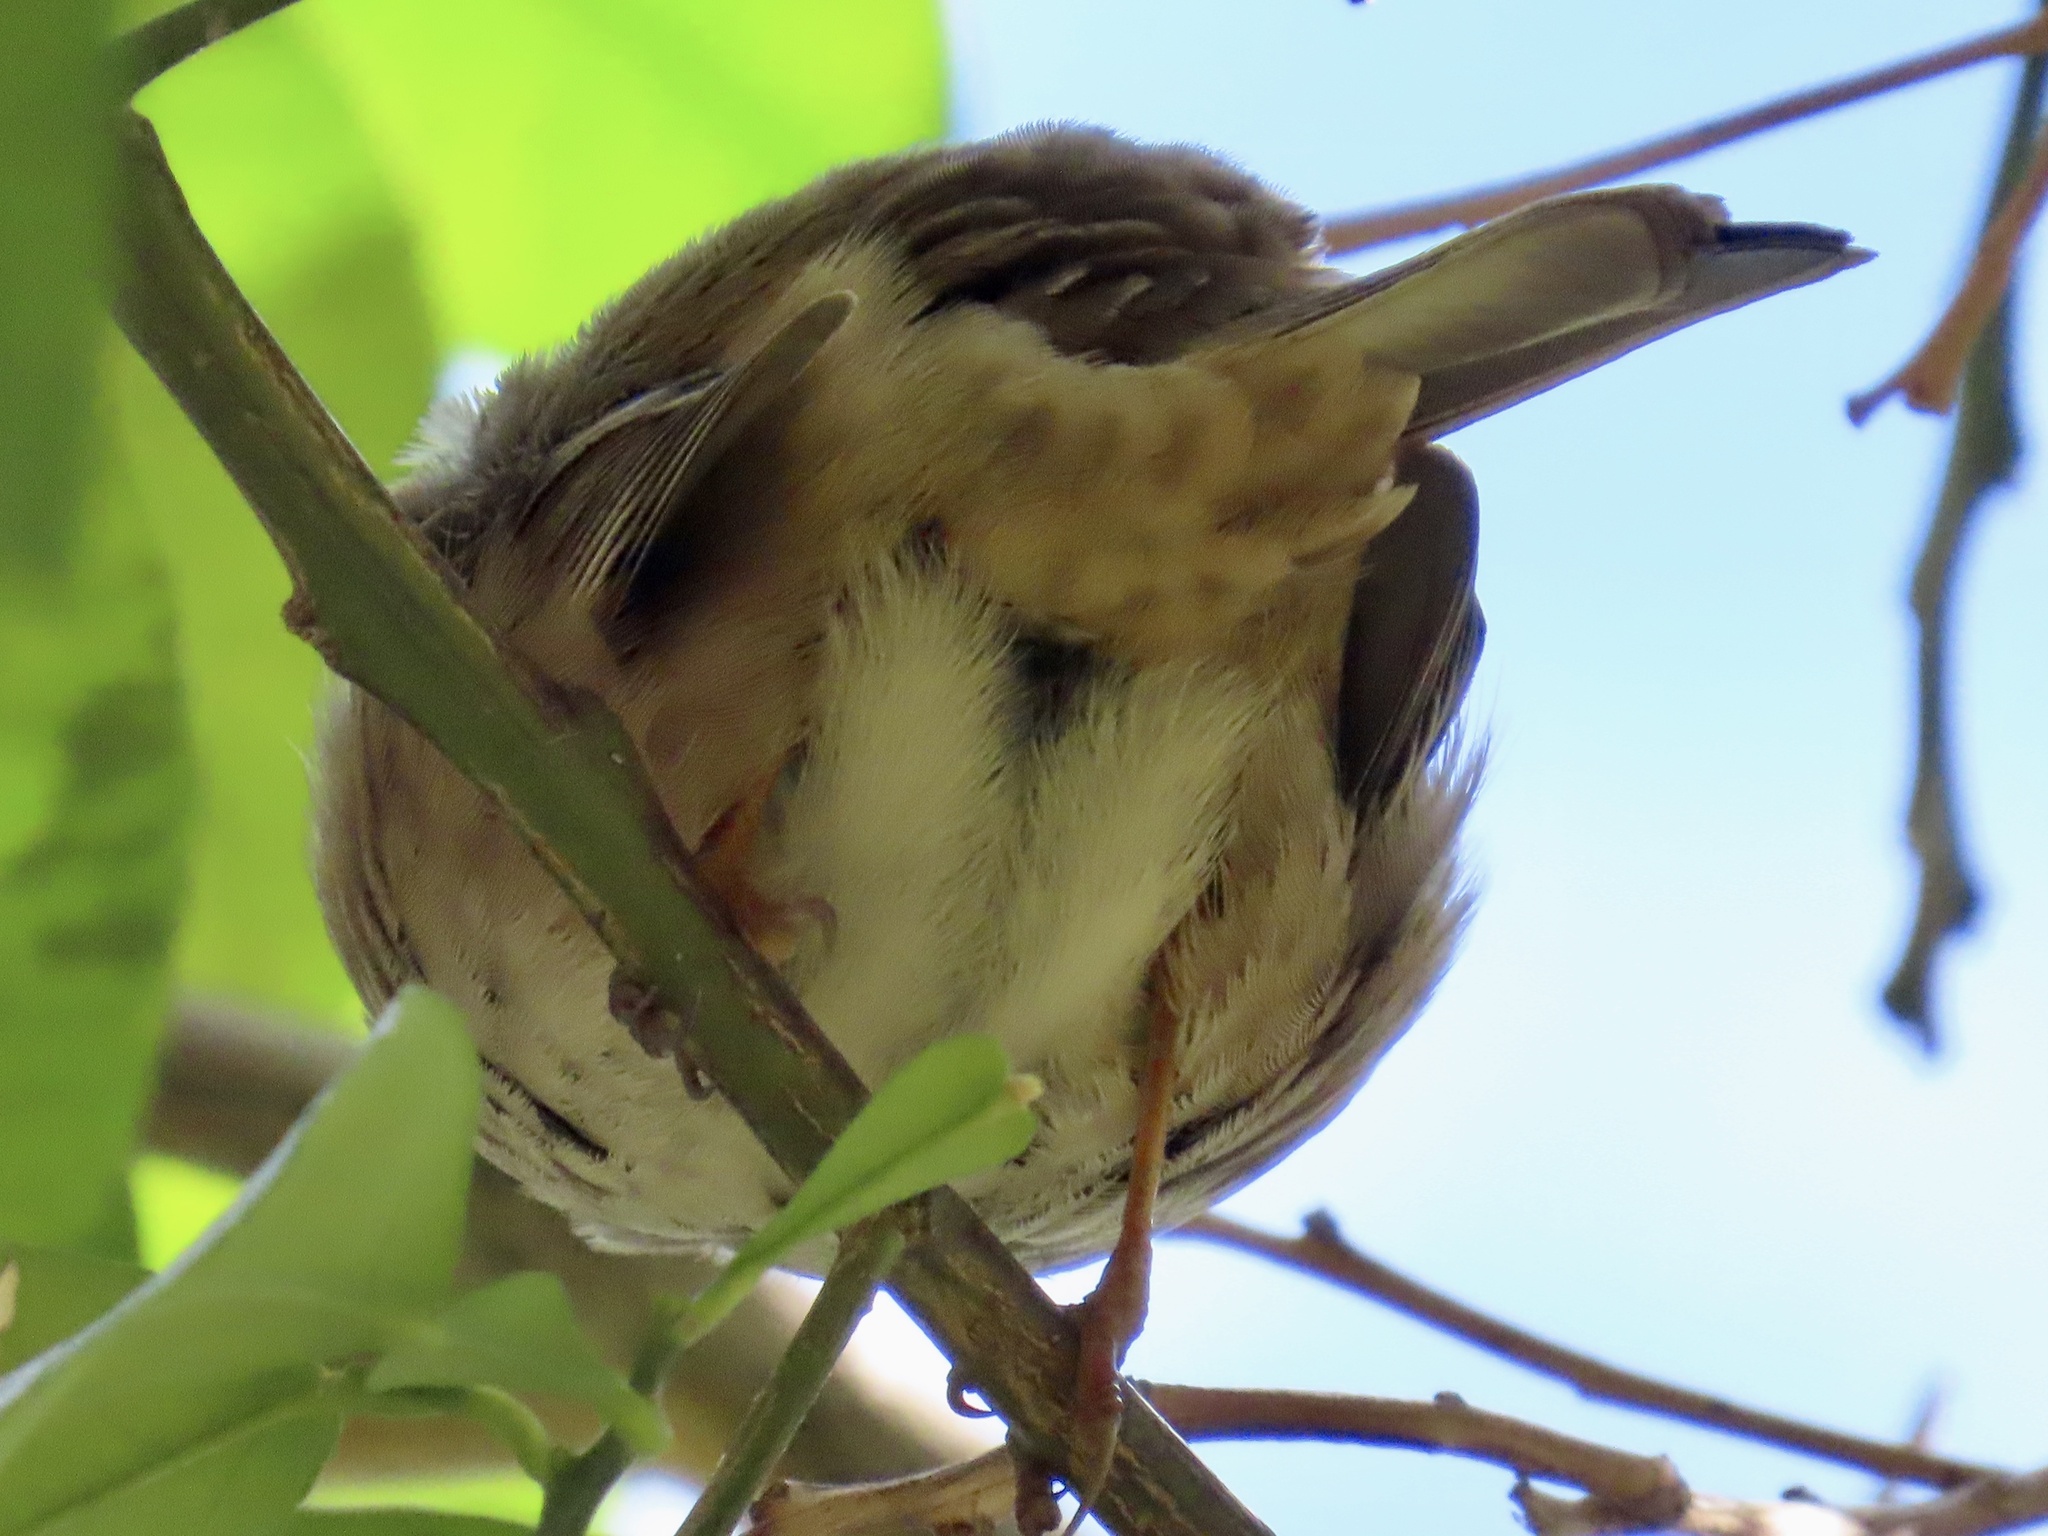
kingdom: Animalia
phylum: Chordata
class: Aves
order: Passeriformes
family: Passerellidae
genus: Zonotrichia
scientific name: Zonotrichia leucophrys
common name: White-crowned sparrow
